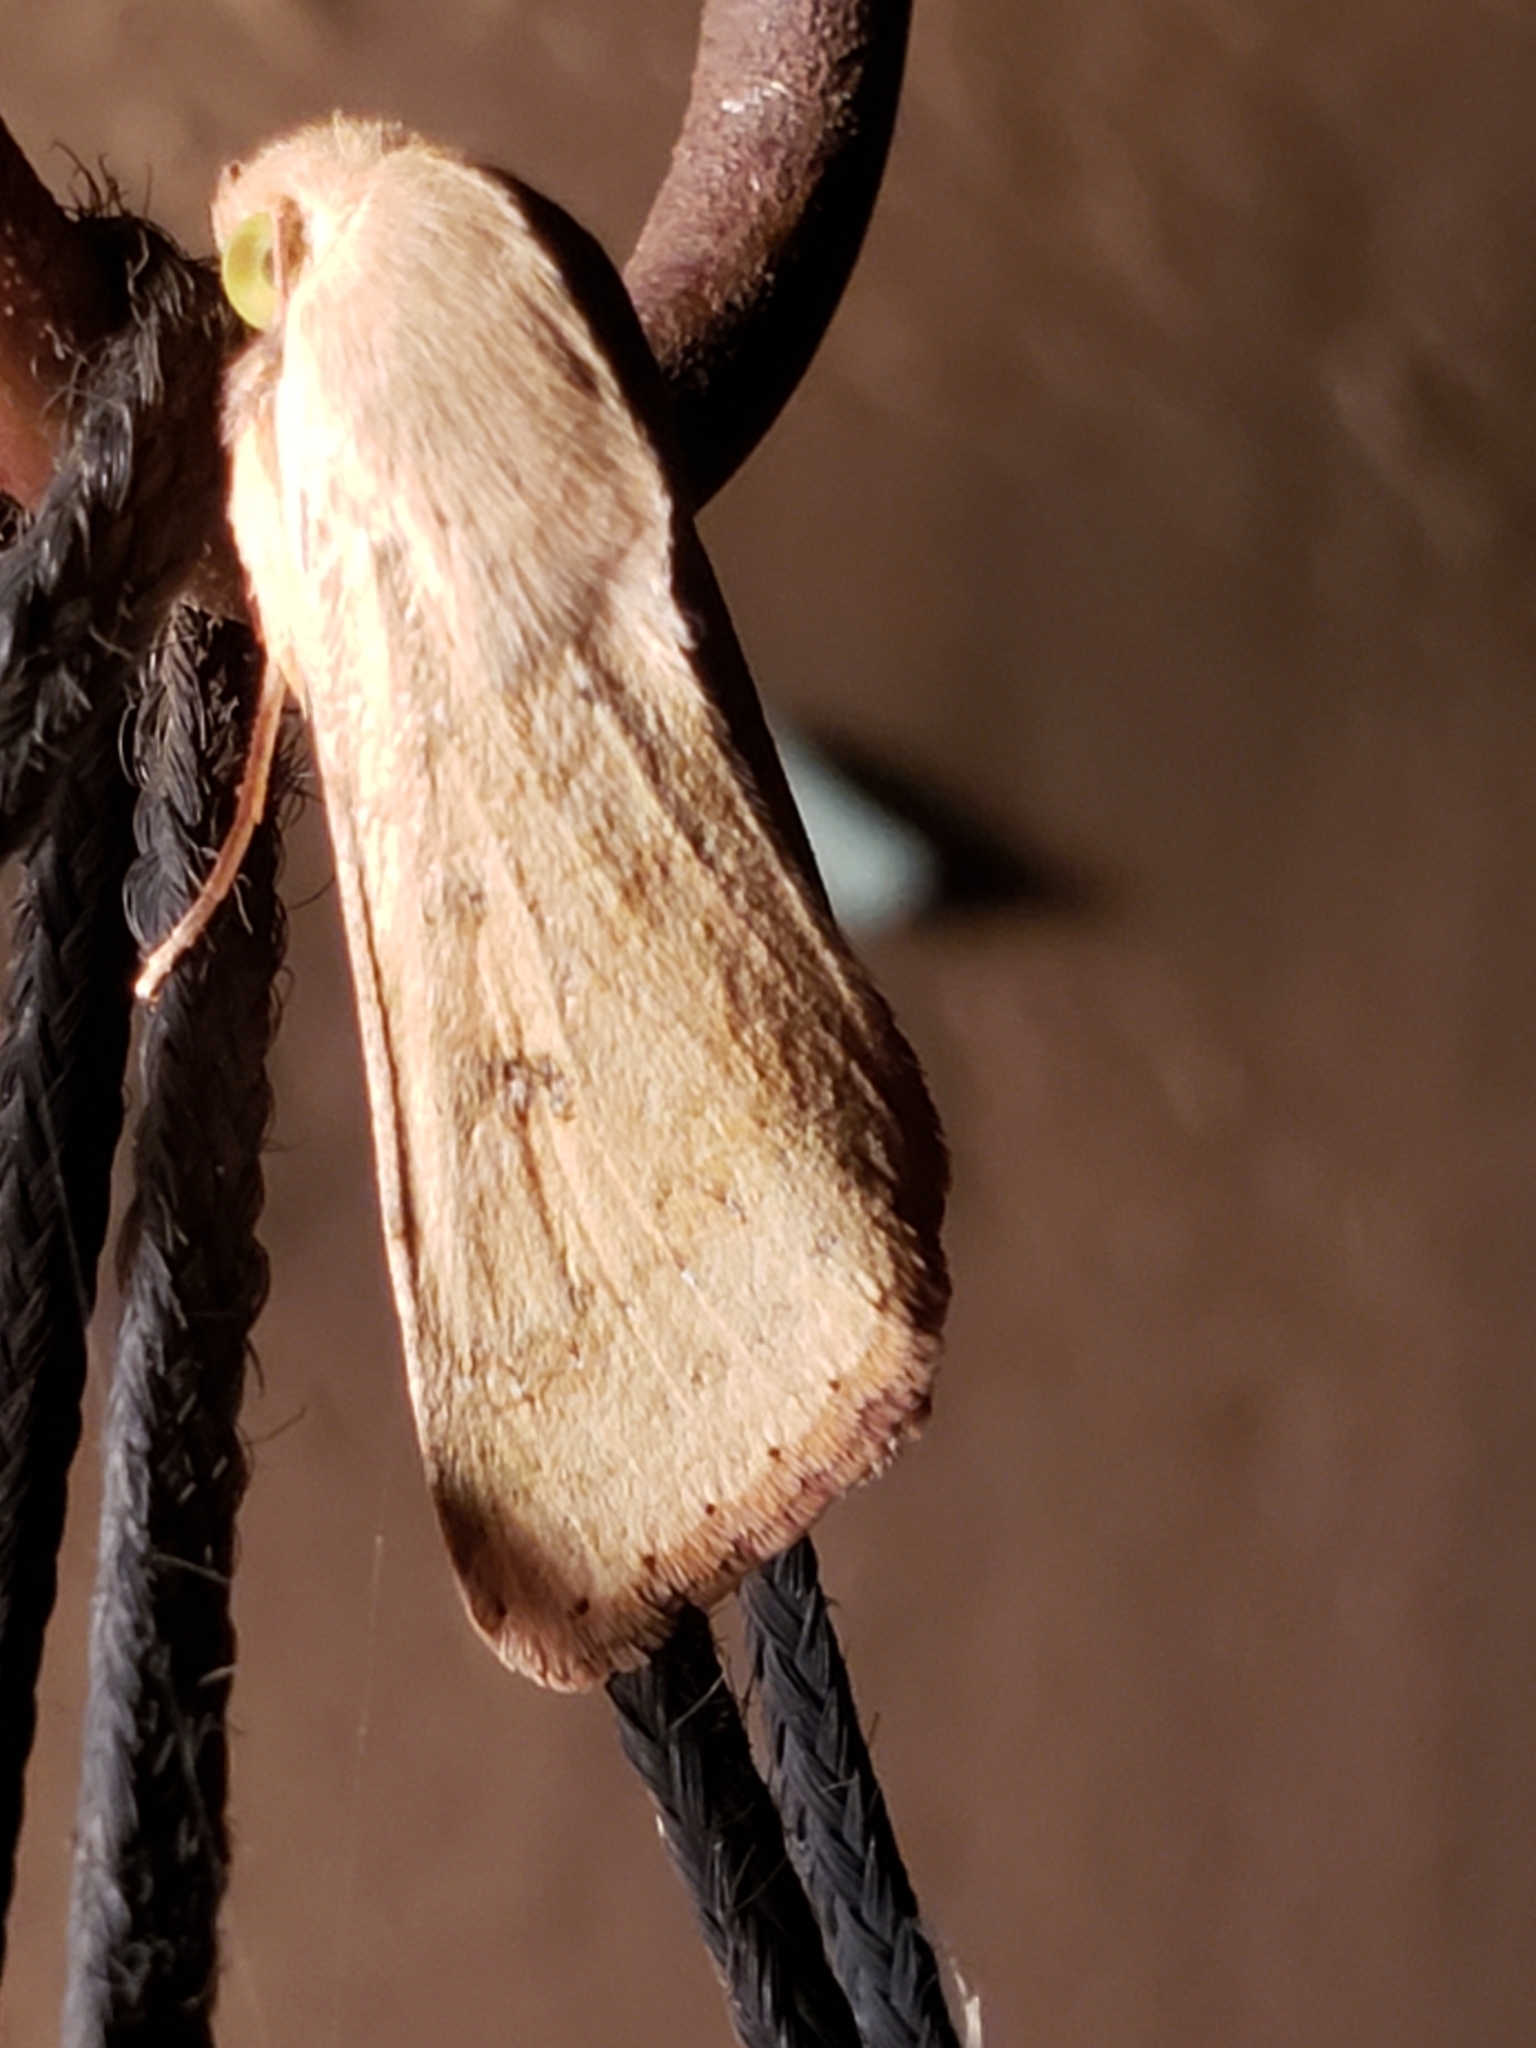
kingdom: Animalia
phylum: Arthropoda
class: Insecta
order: Lepidoptera
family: Noctuidae
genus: Helicoverpa
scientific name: Helicoverpa zea
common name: Bollworm
